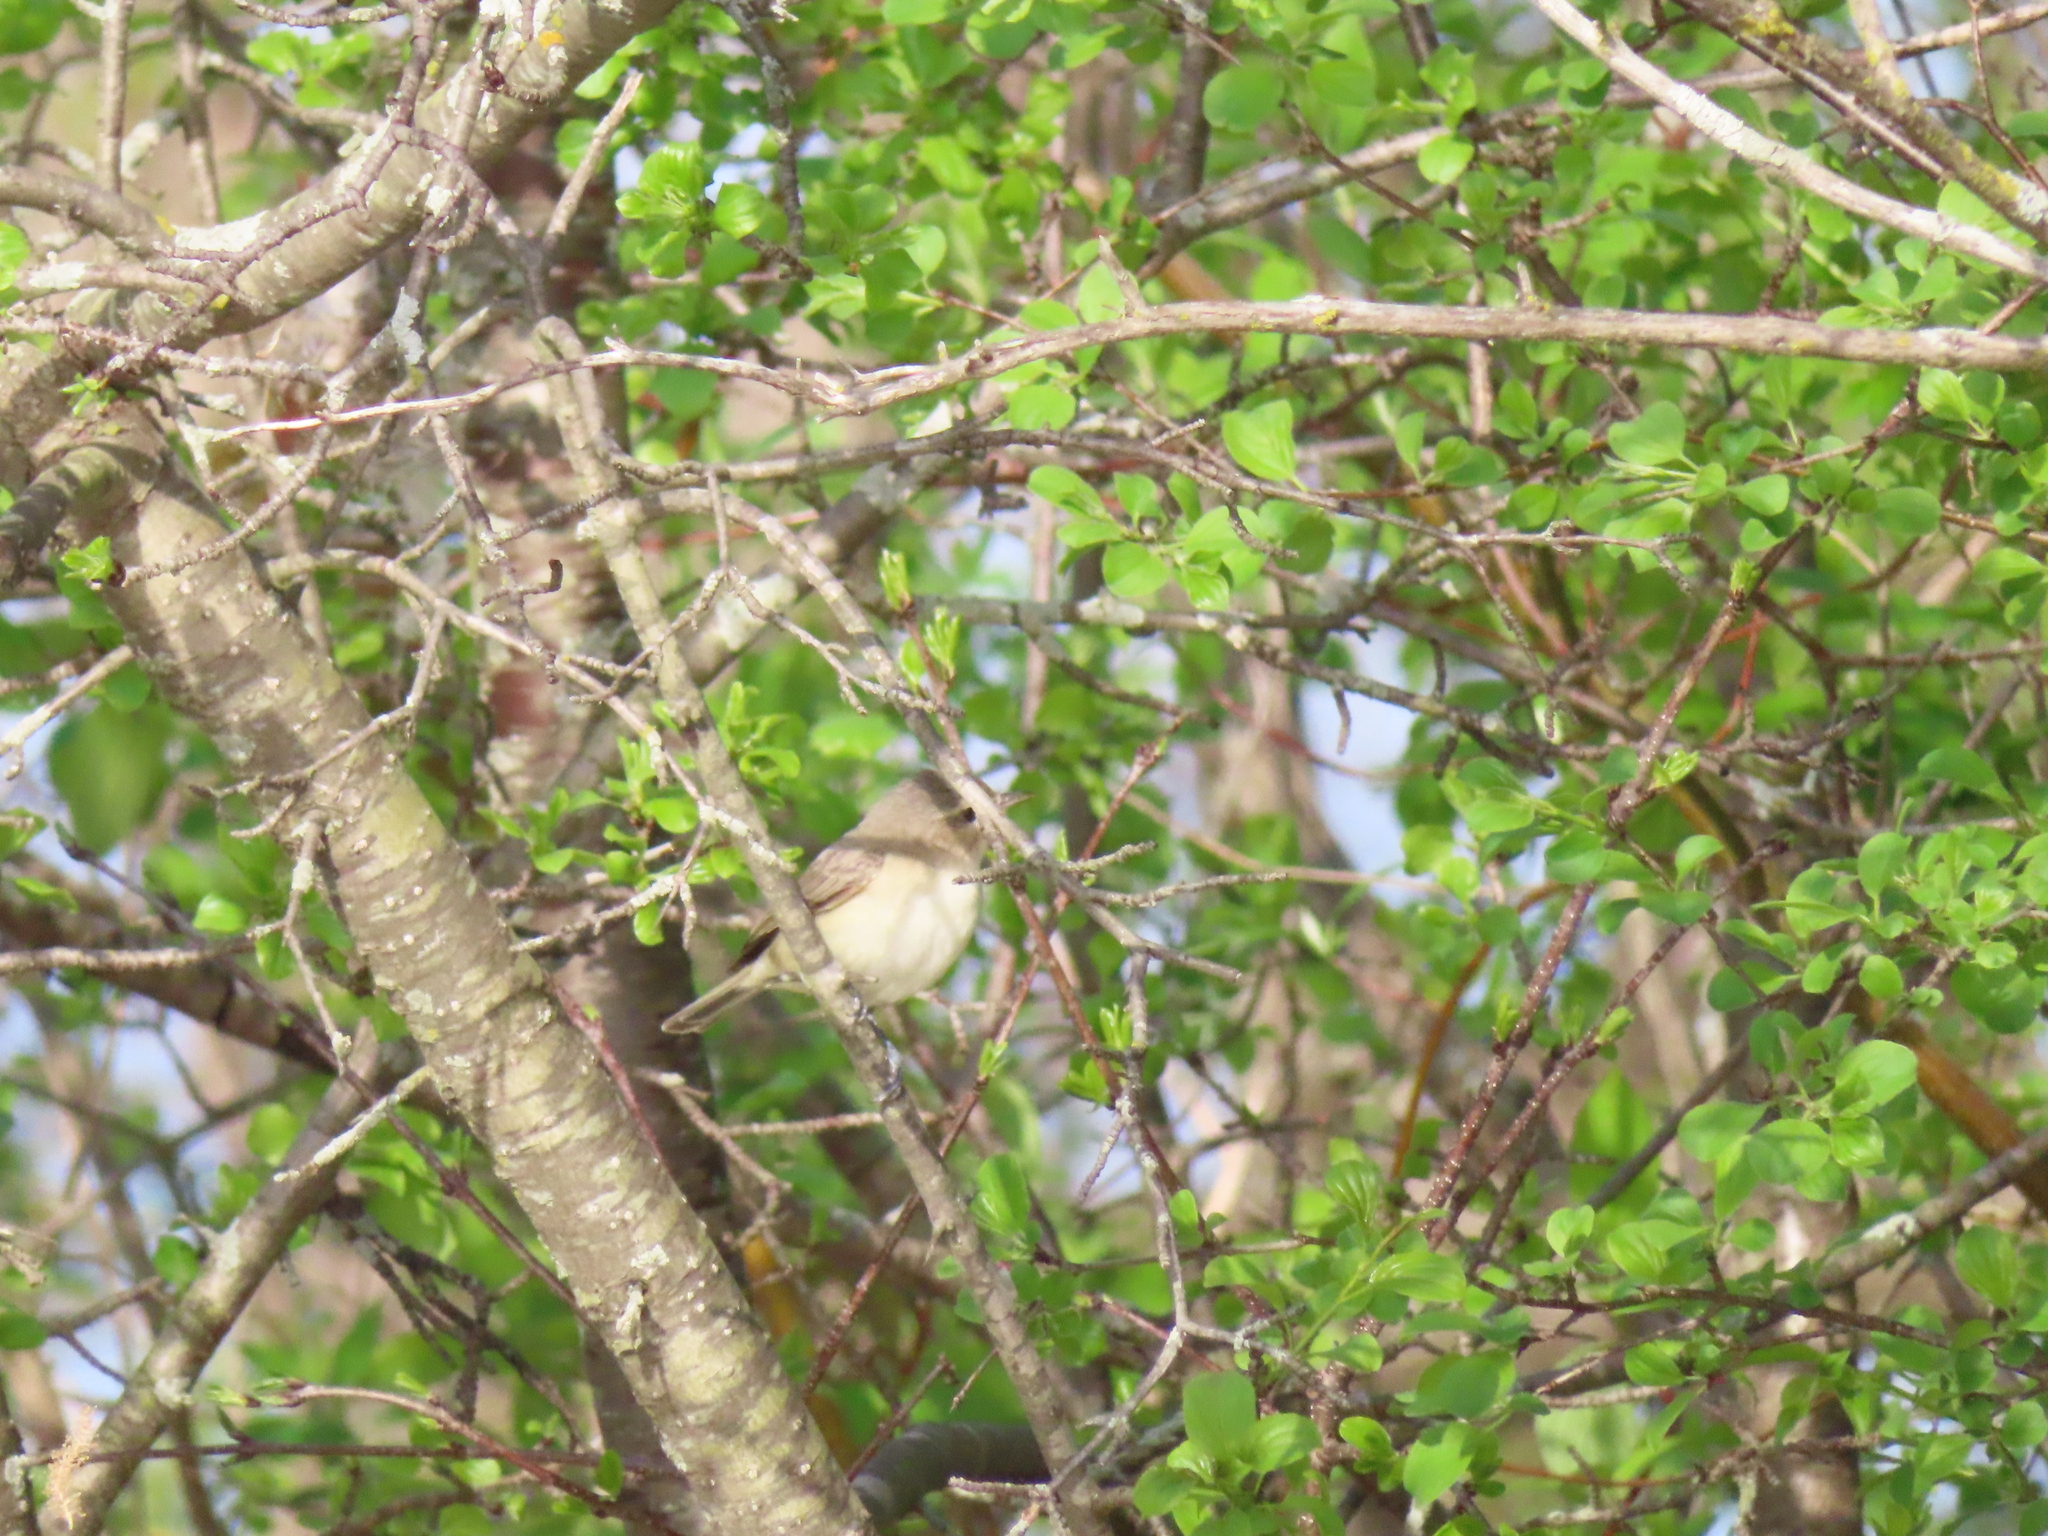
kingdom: Animalia
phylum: Chordata
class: Aves
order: Passeriformes
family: Vireonidae
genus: Vireo
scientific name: Vireo gilvus
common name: Warbling vireo
